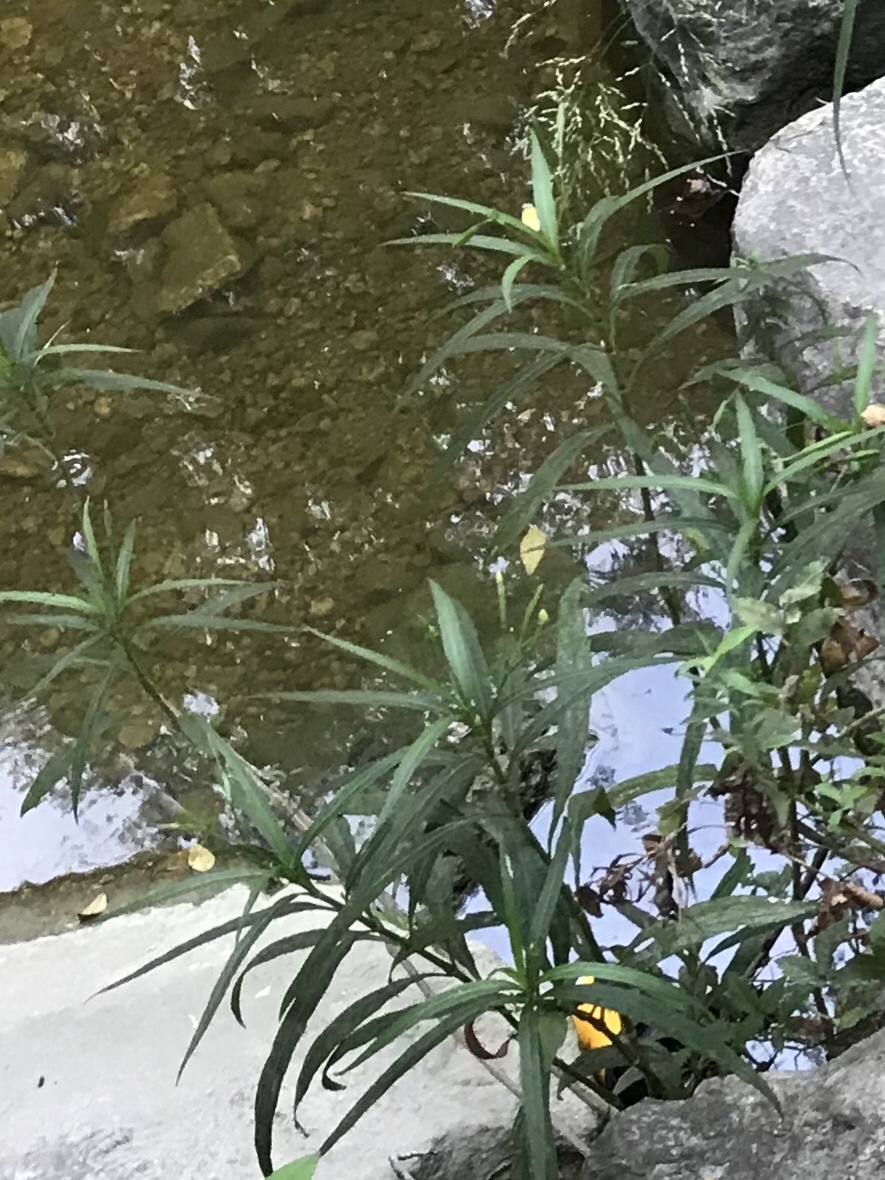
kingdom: Plantae
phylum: Tracheophyta
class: Magnoliopsida
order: Lamiales
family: Acanthaceae
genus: Ruellia
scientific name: Ruellia simplex
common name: Softseed wild petunia
